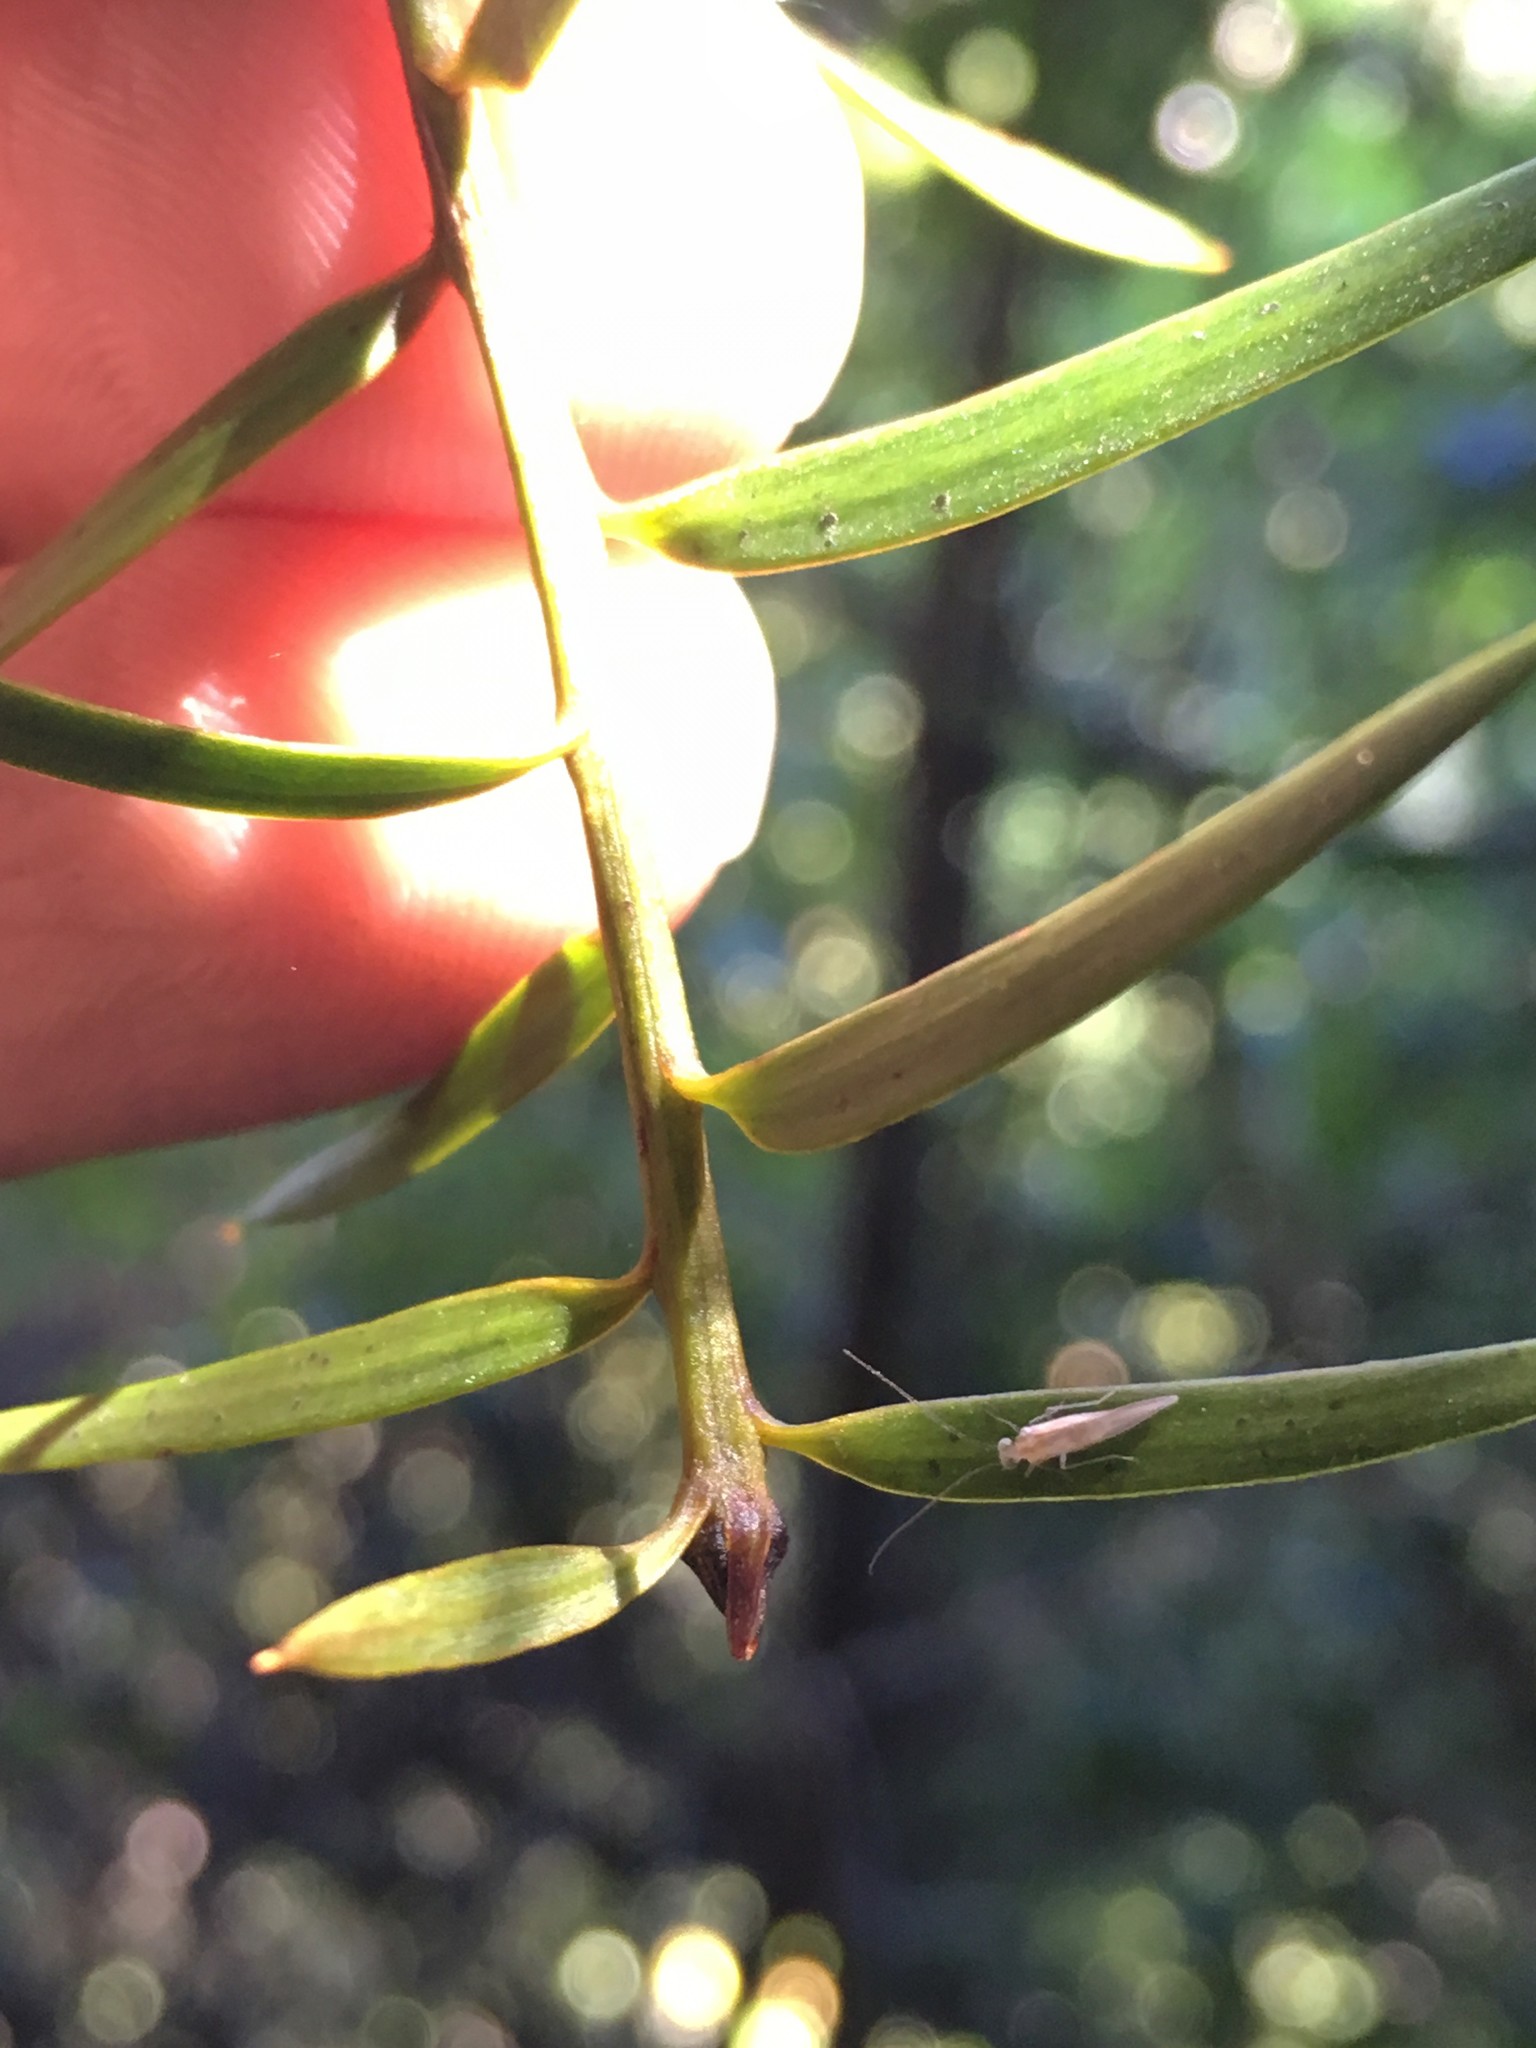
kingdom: Plantae
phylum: Tracheophyta
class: Pinopsida
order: Pinales
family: Podocarpaceae
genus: Podocarpus
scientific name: Podocarpus totara
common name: Totara
